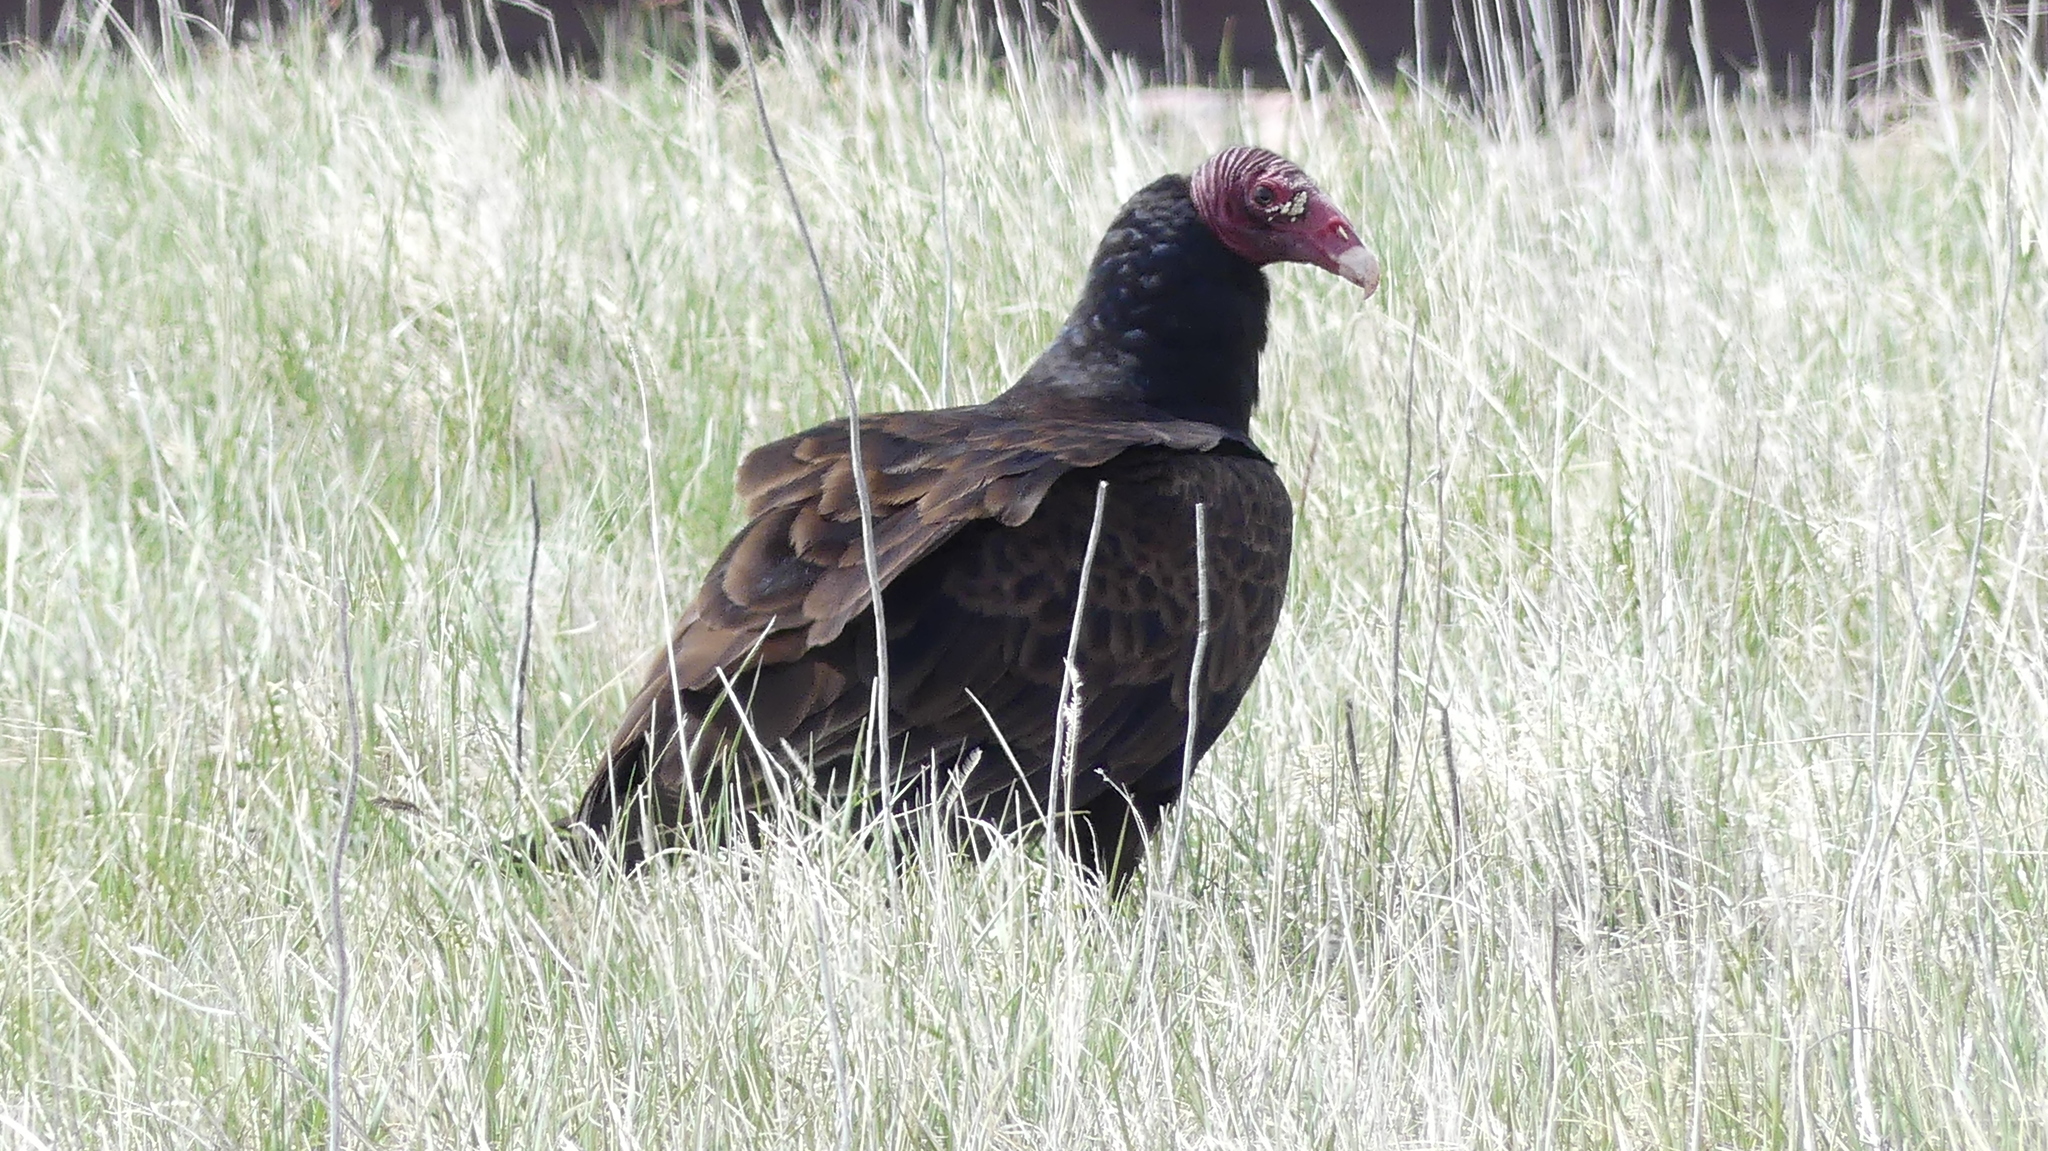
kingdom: Animalia
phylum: Chordata
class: Aves
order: Accipitriformes
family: Cathartidae
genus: Cathartes
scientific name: Cathartes aura
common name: Turkey vulture
